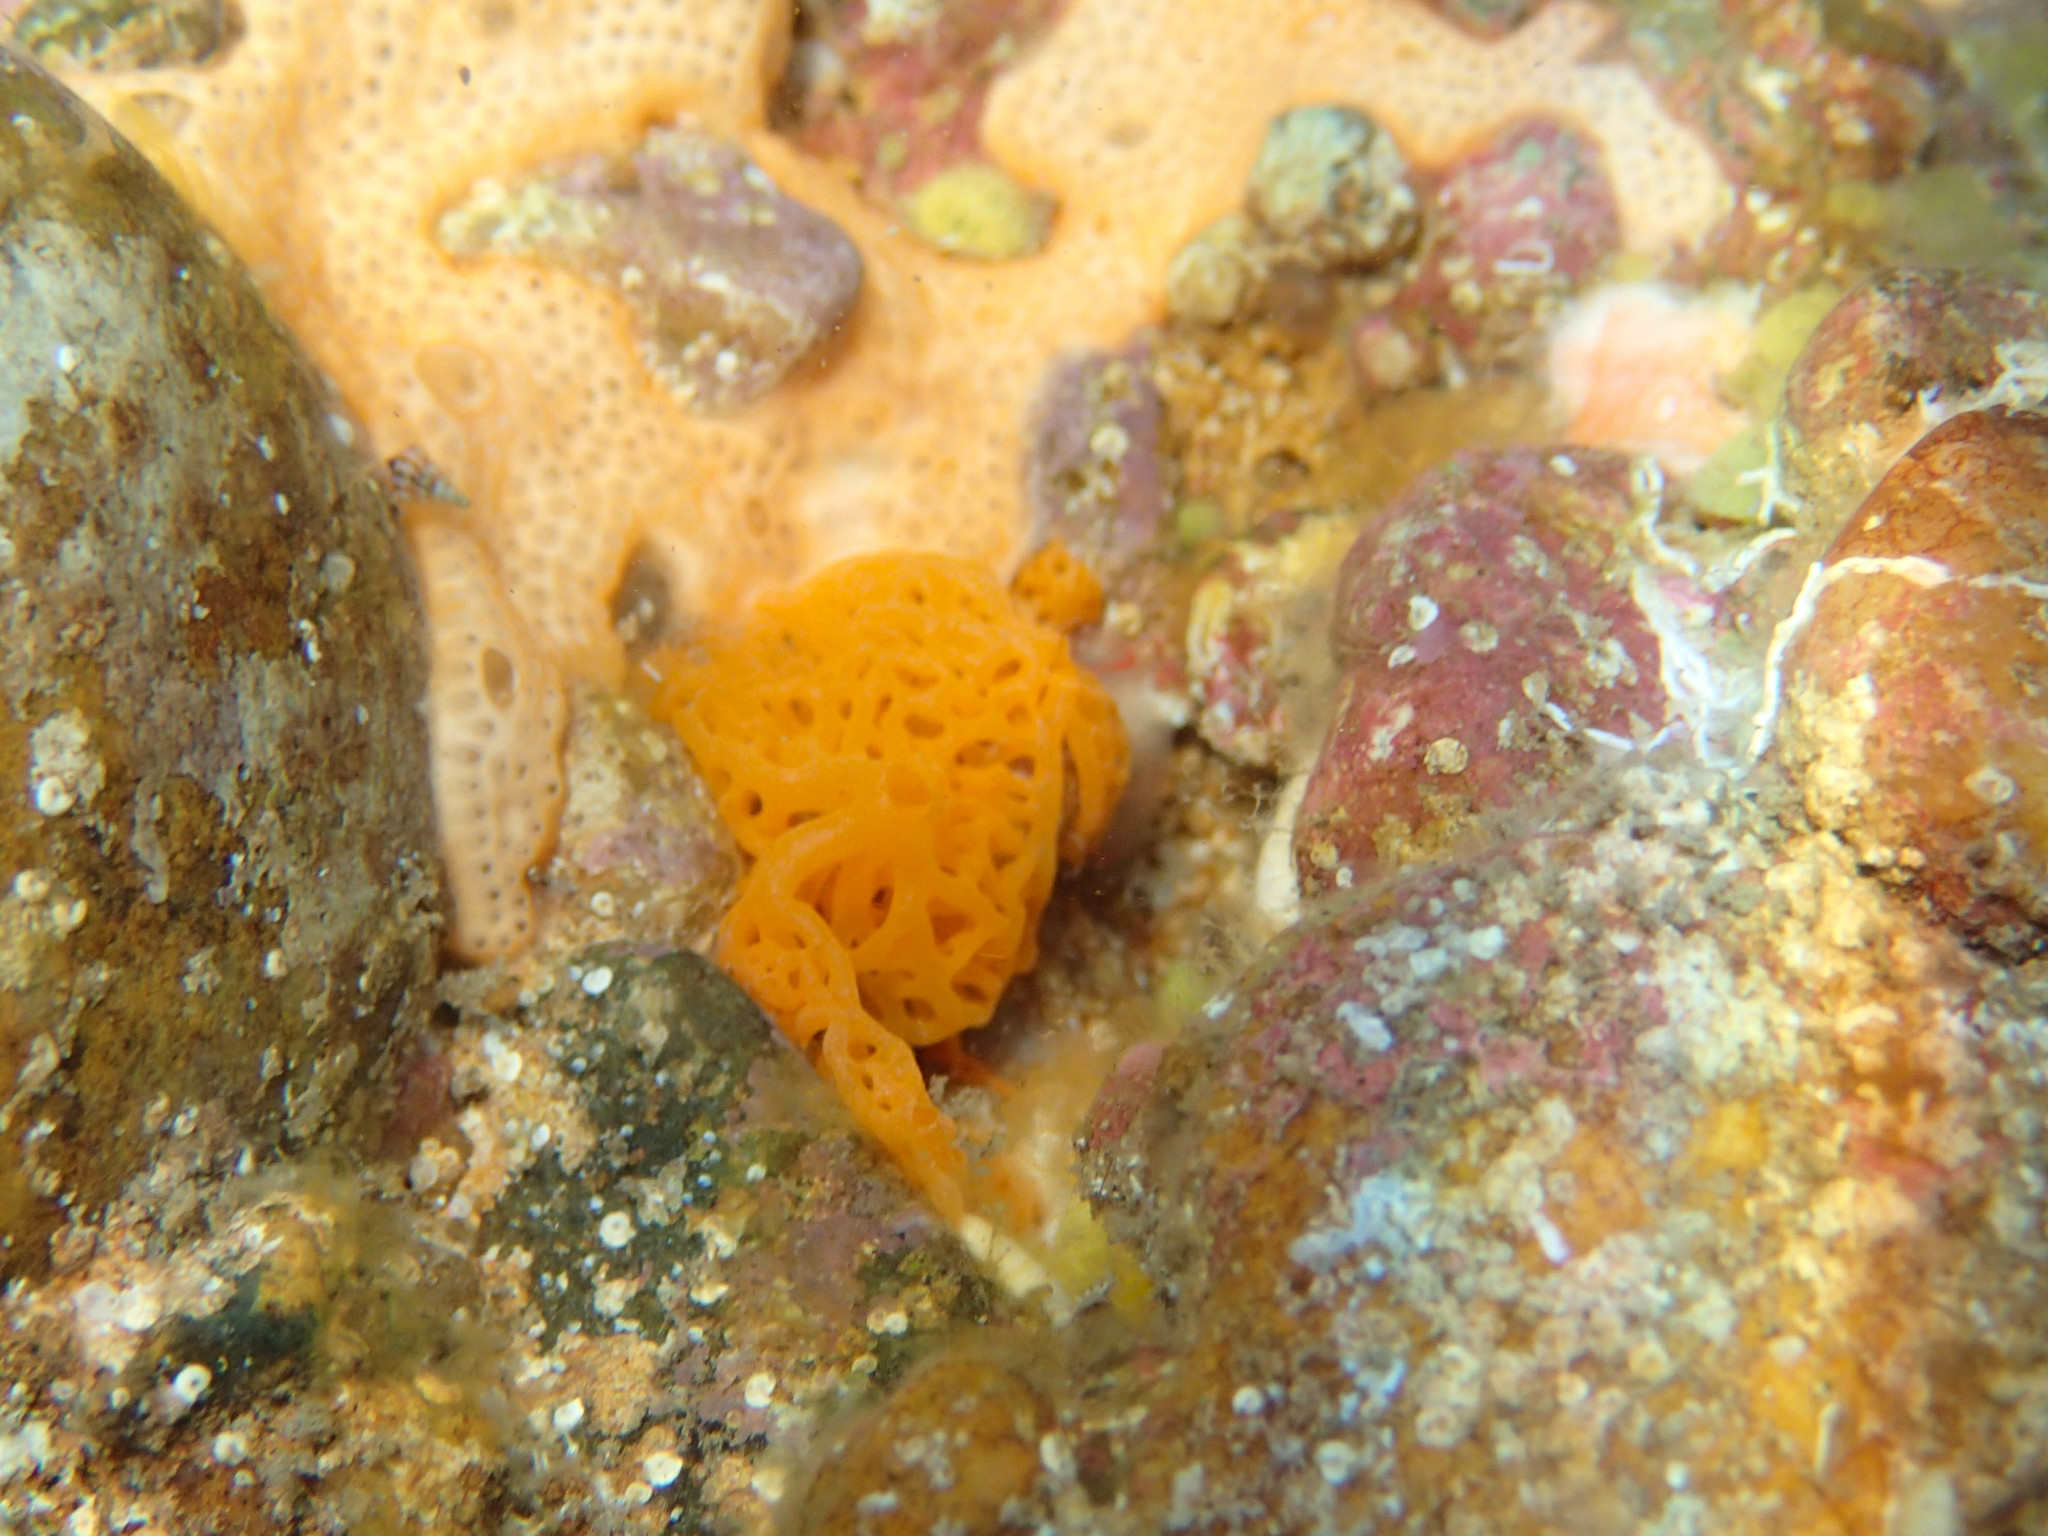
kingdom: Animalia
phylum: Porifera
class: Calcarea
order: Clathrinida
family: Clathrinidae
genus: Clathrina
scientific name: Clathrina rubra
